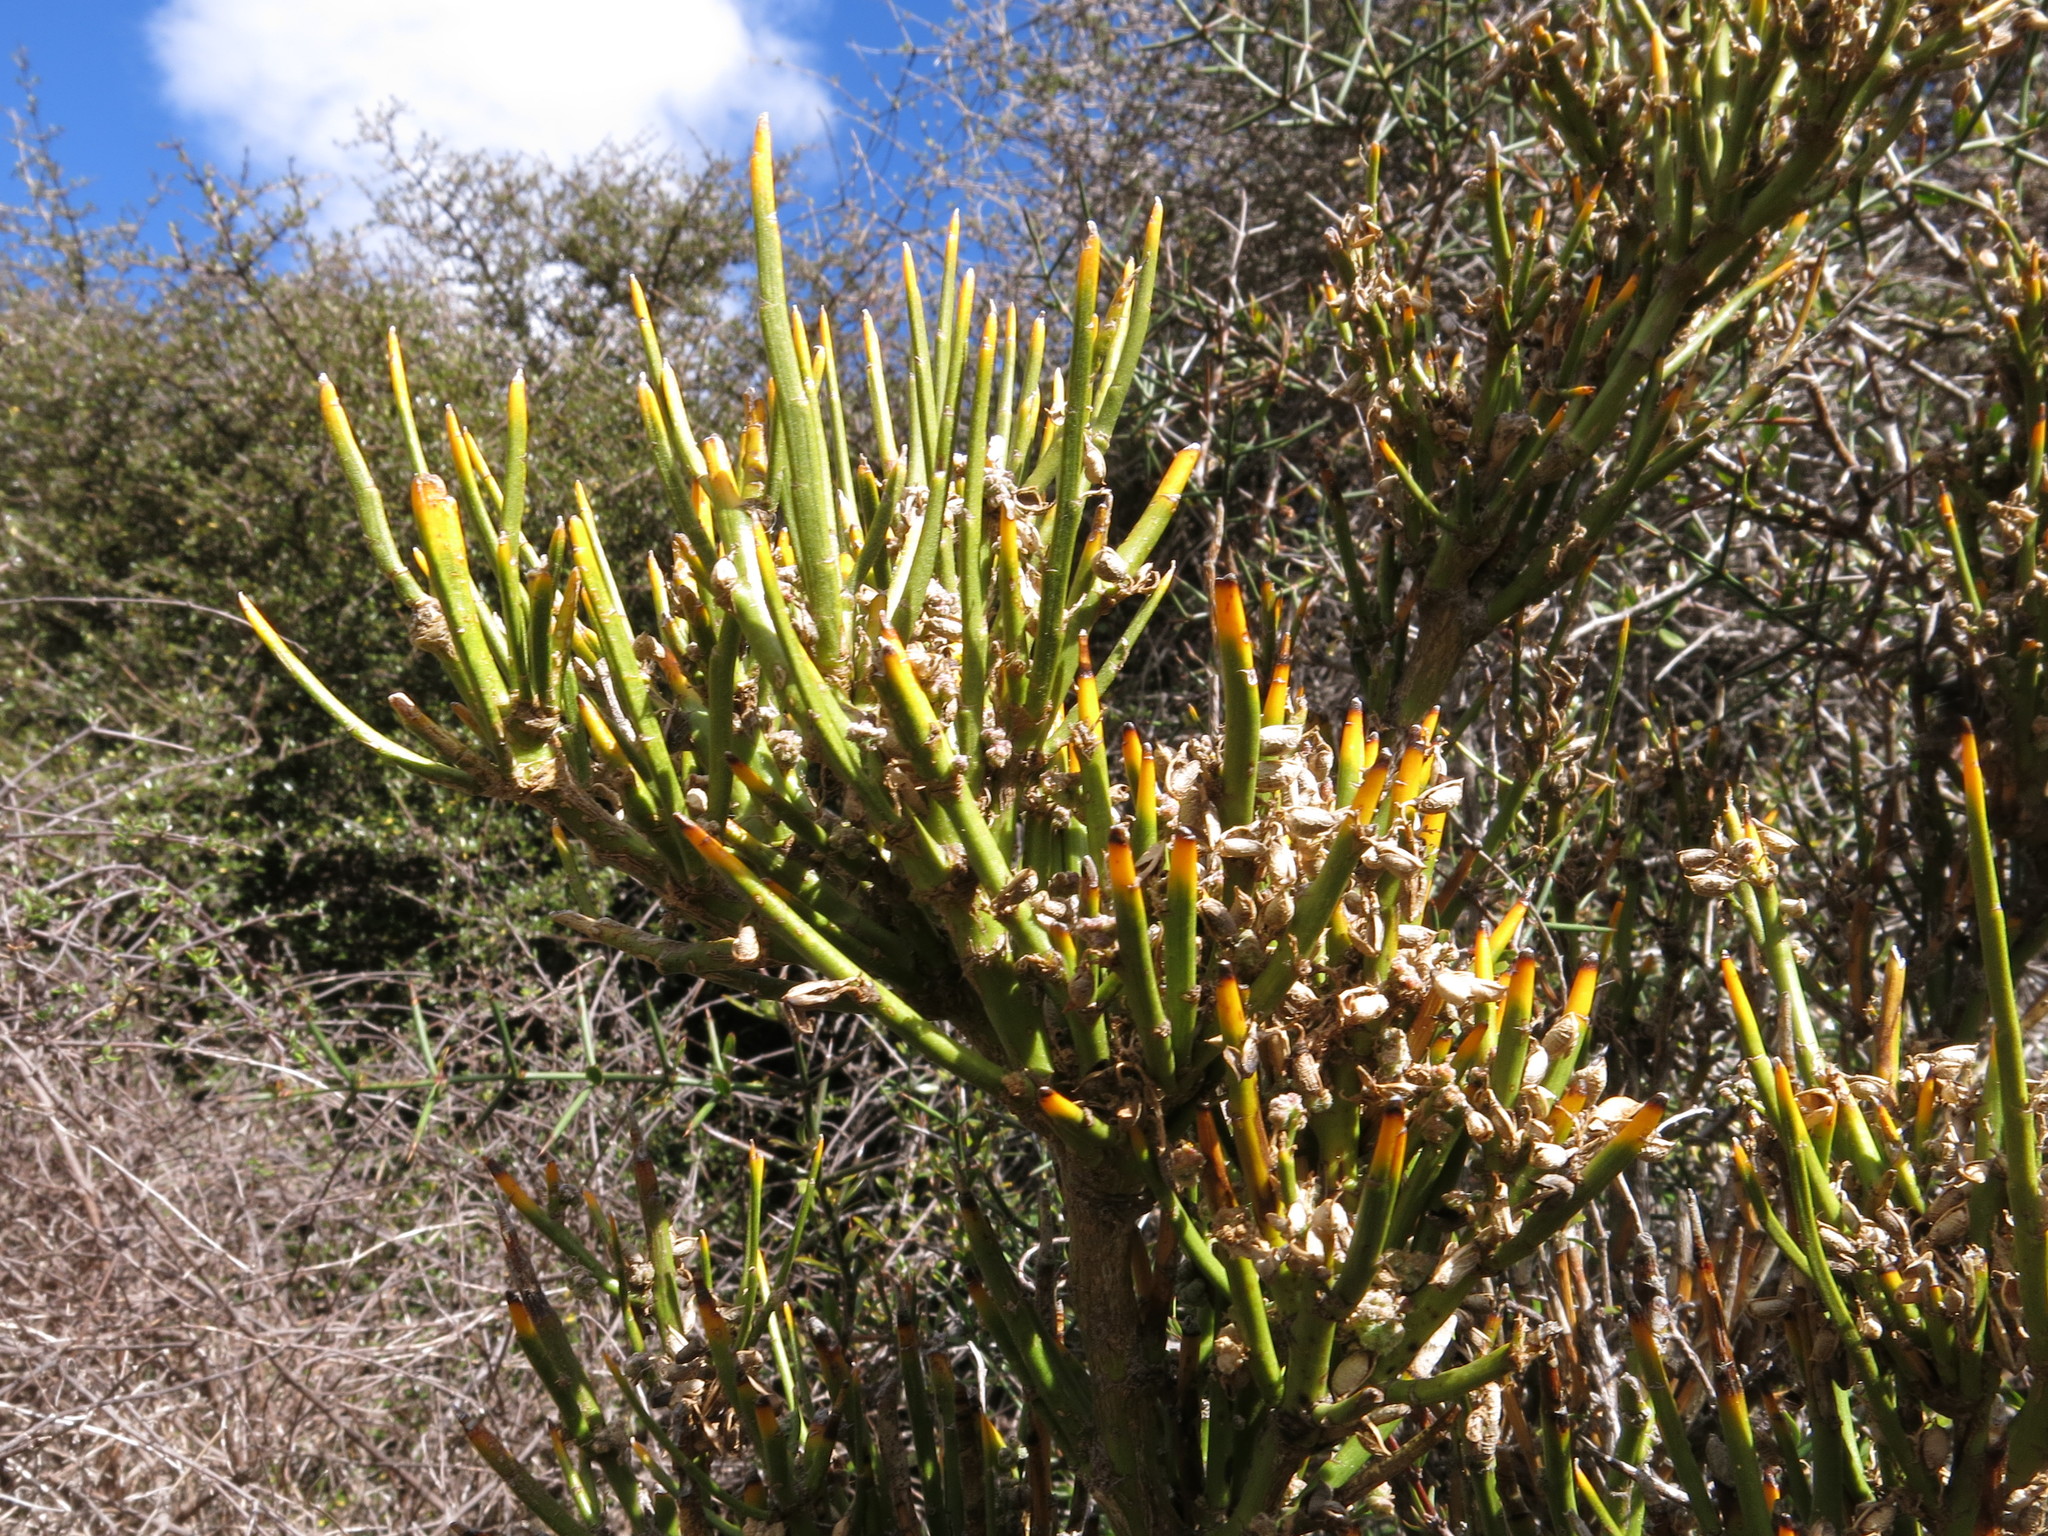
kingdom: Plantae
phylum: Tracheophyta
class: Magnoliopsida
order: Fabales
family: Fabaceae
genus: Carmichaelia
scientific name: Carmichaelia petriei
